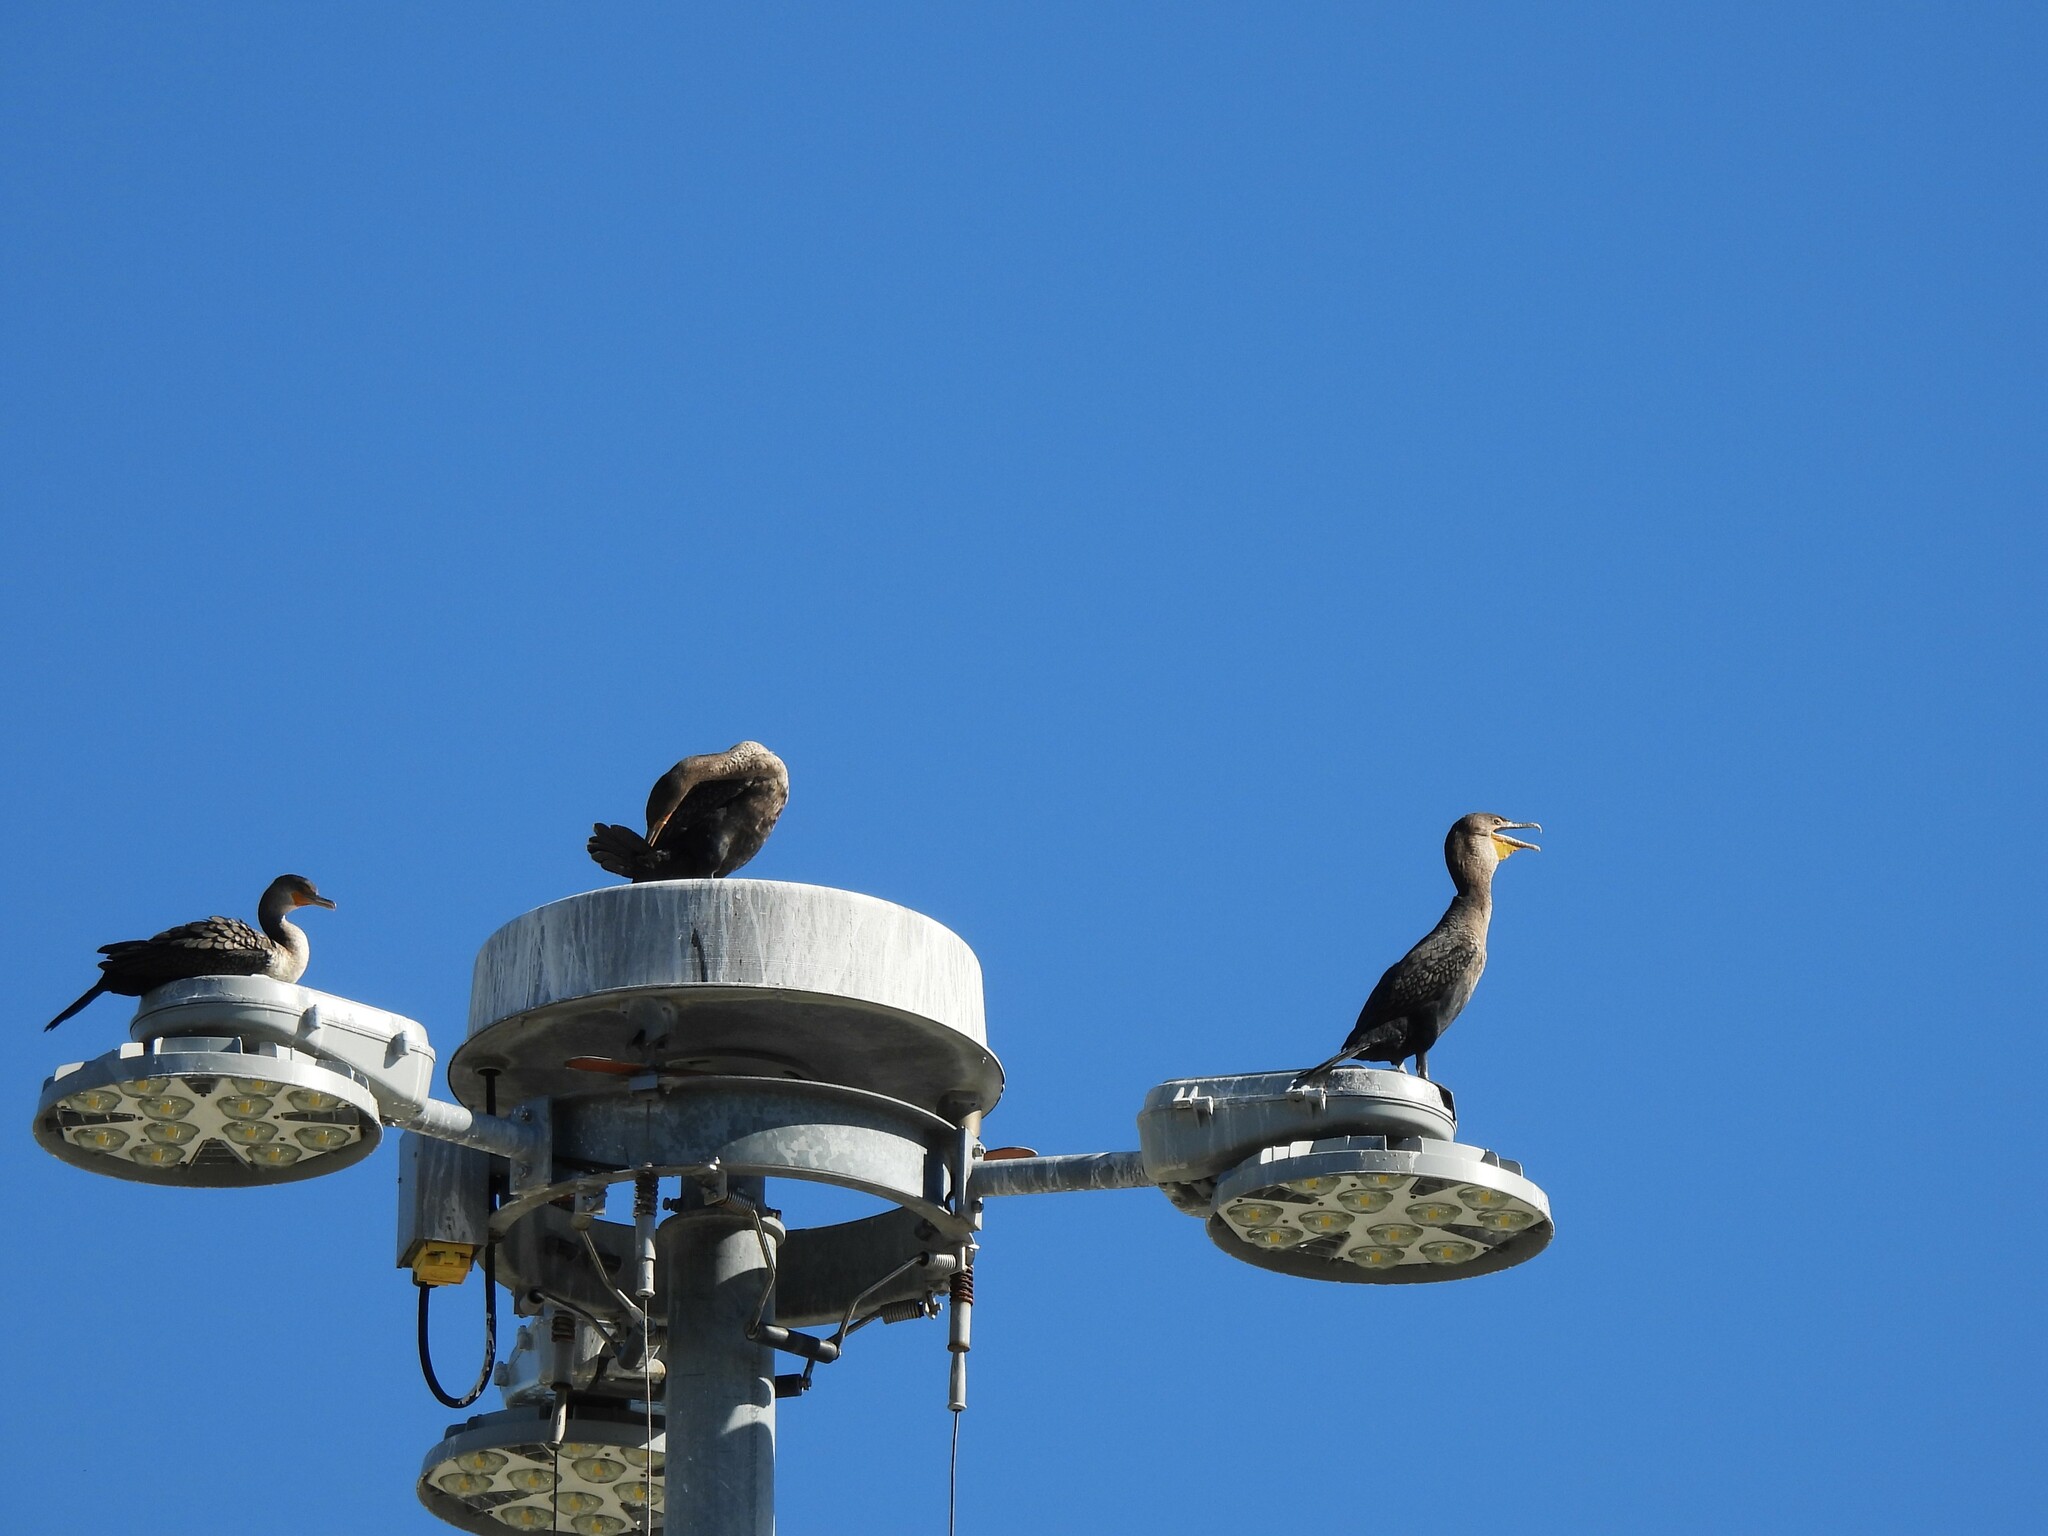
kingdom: Animalia
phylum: Chordata
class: Aves
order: Suliformes
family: Phalacrocoracidae
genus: Phalacrocorax
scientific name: Phalacrocorax auritus
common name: Double-crested cormorant
